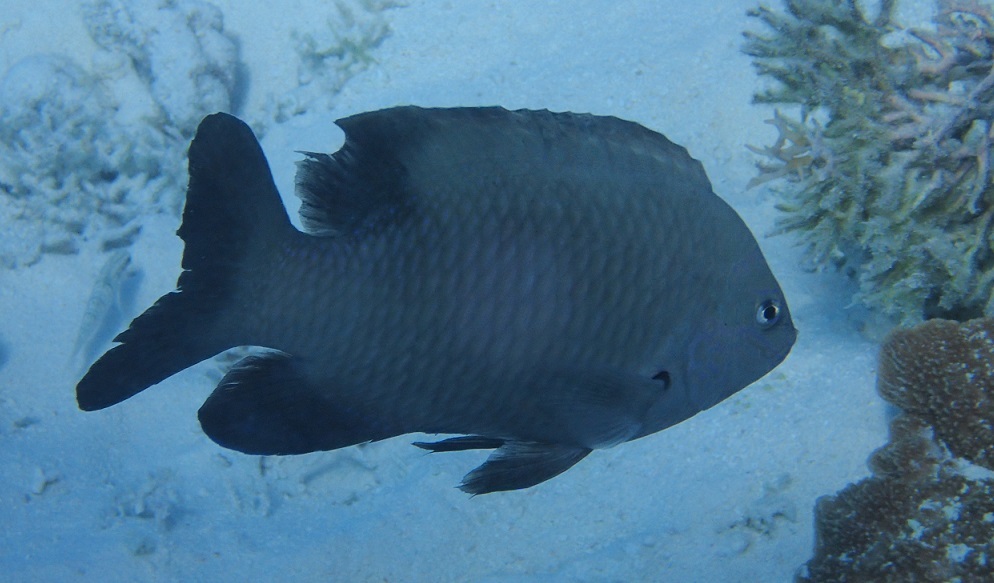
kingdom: Animalia
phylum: Chordata
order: Perciformes
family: Pomacentridae
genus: Dischistodus
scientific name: Dischistodus perspicillatus
